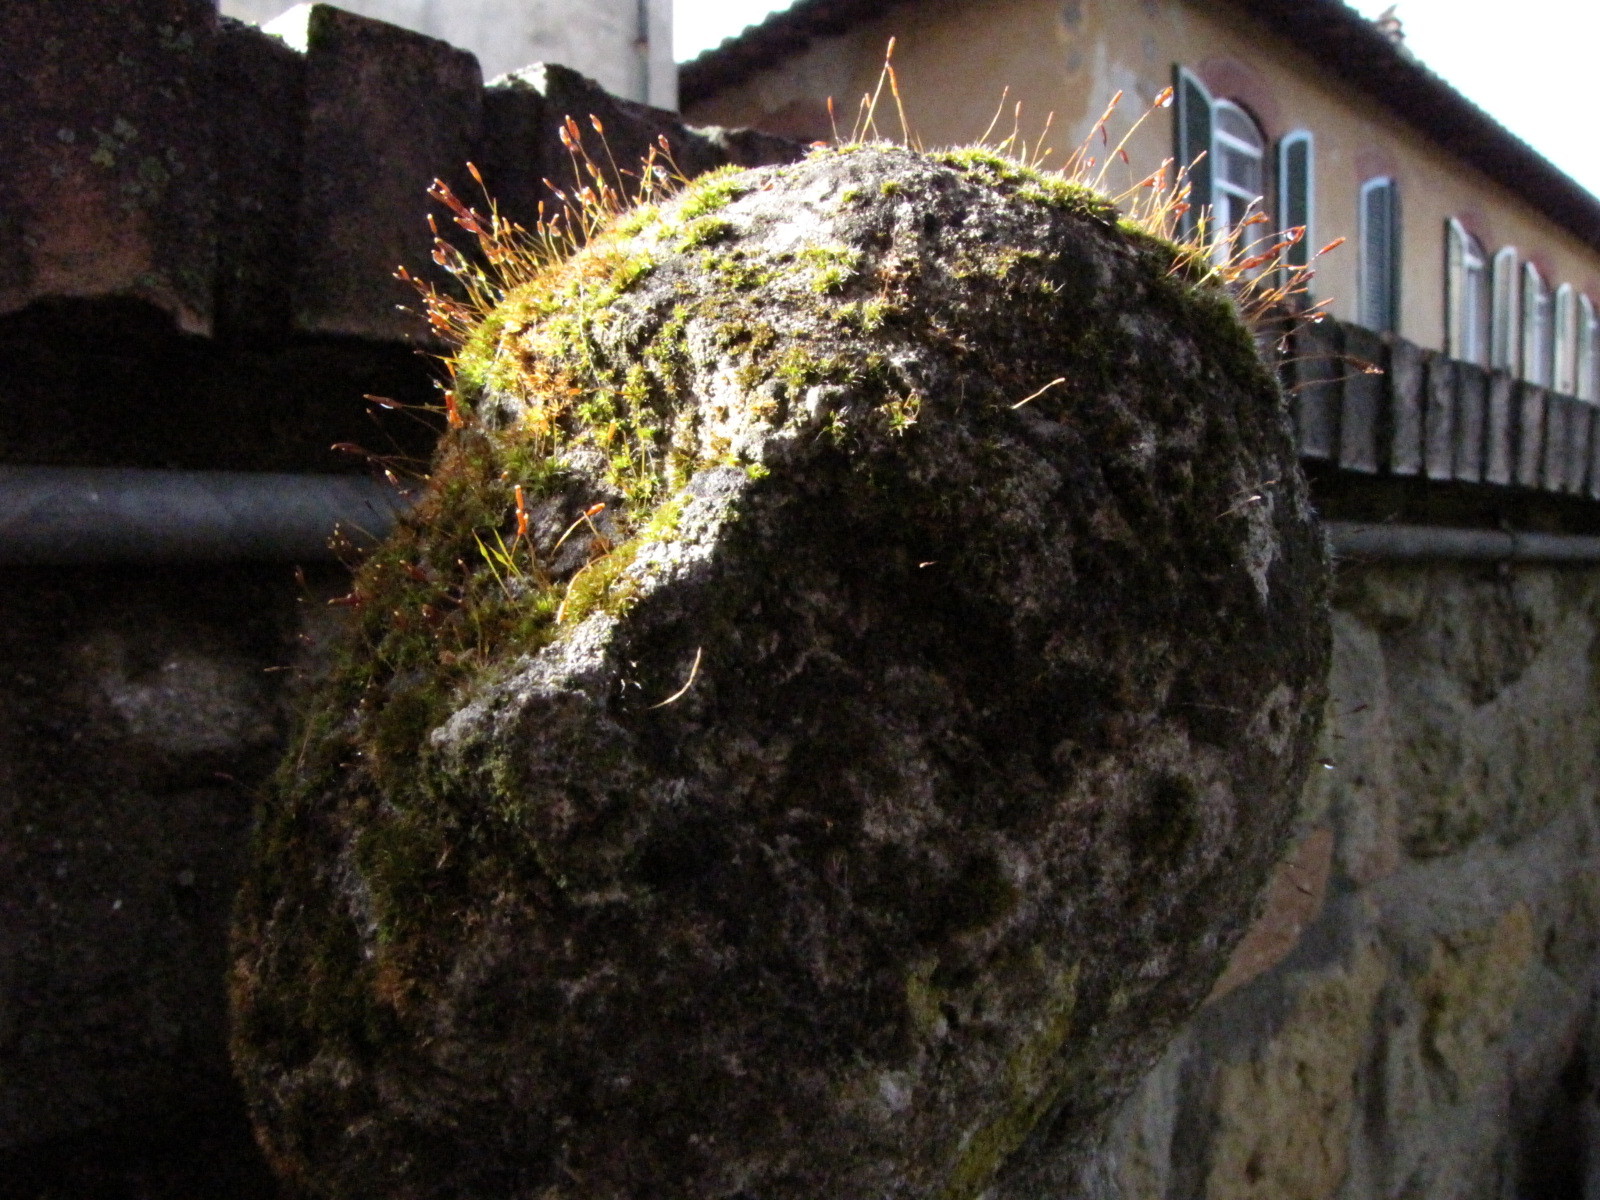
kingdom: Plantae
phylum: Bryophyta
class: Bryopsida
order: Pottiales
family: Pottiaceae
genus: Tortula
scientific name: Tortula muralis
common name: Wall screw-moss
